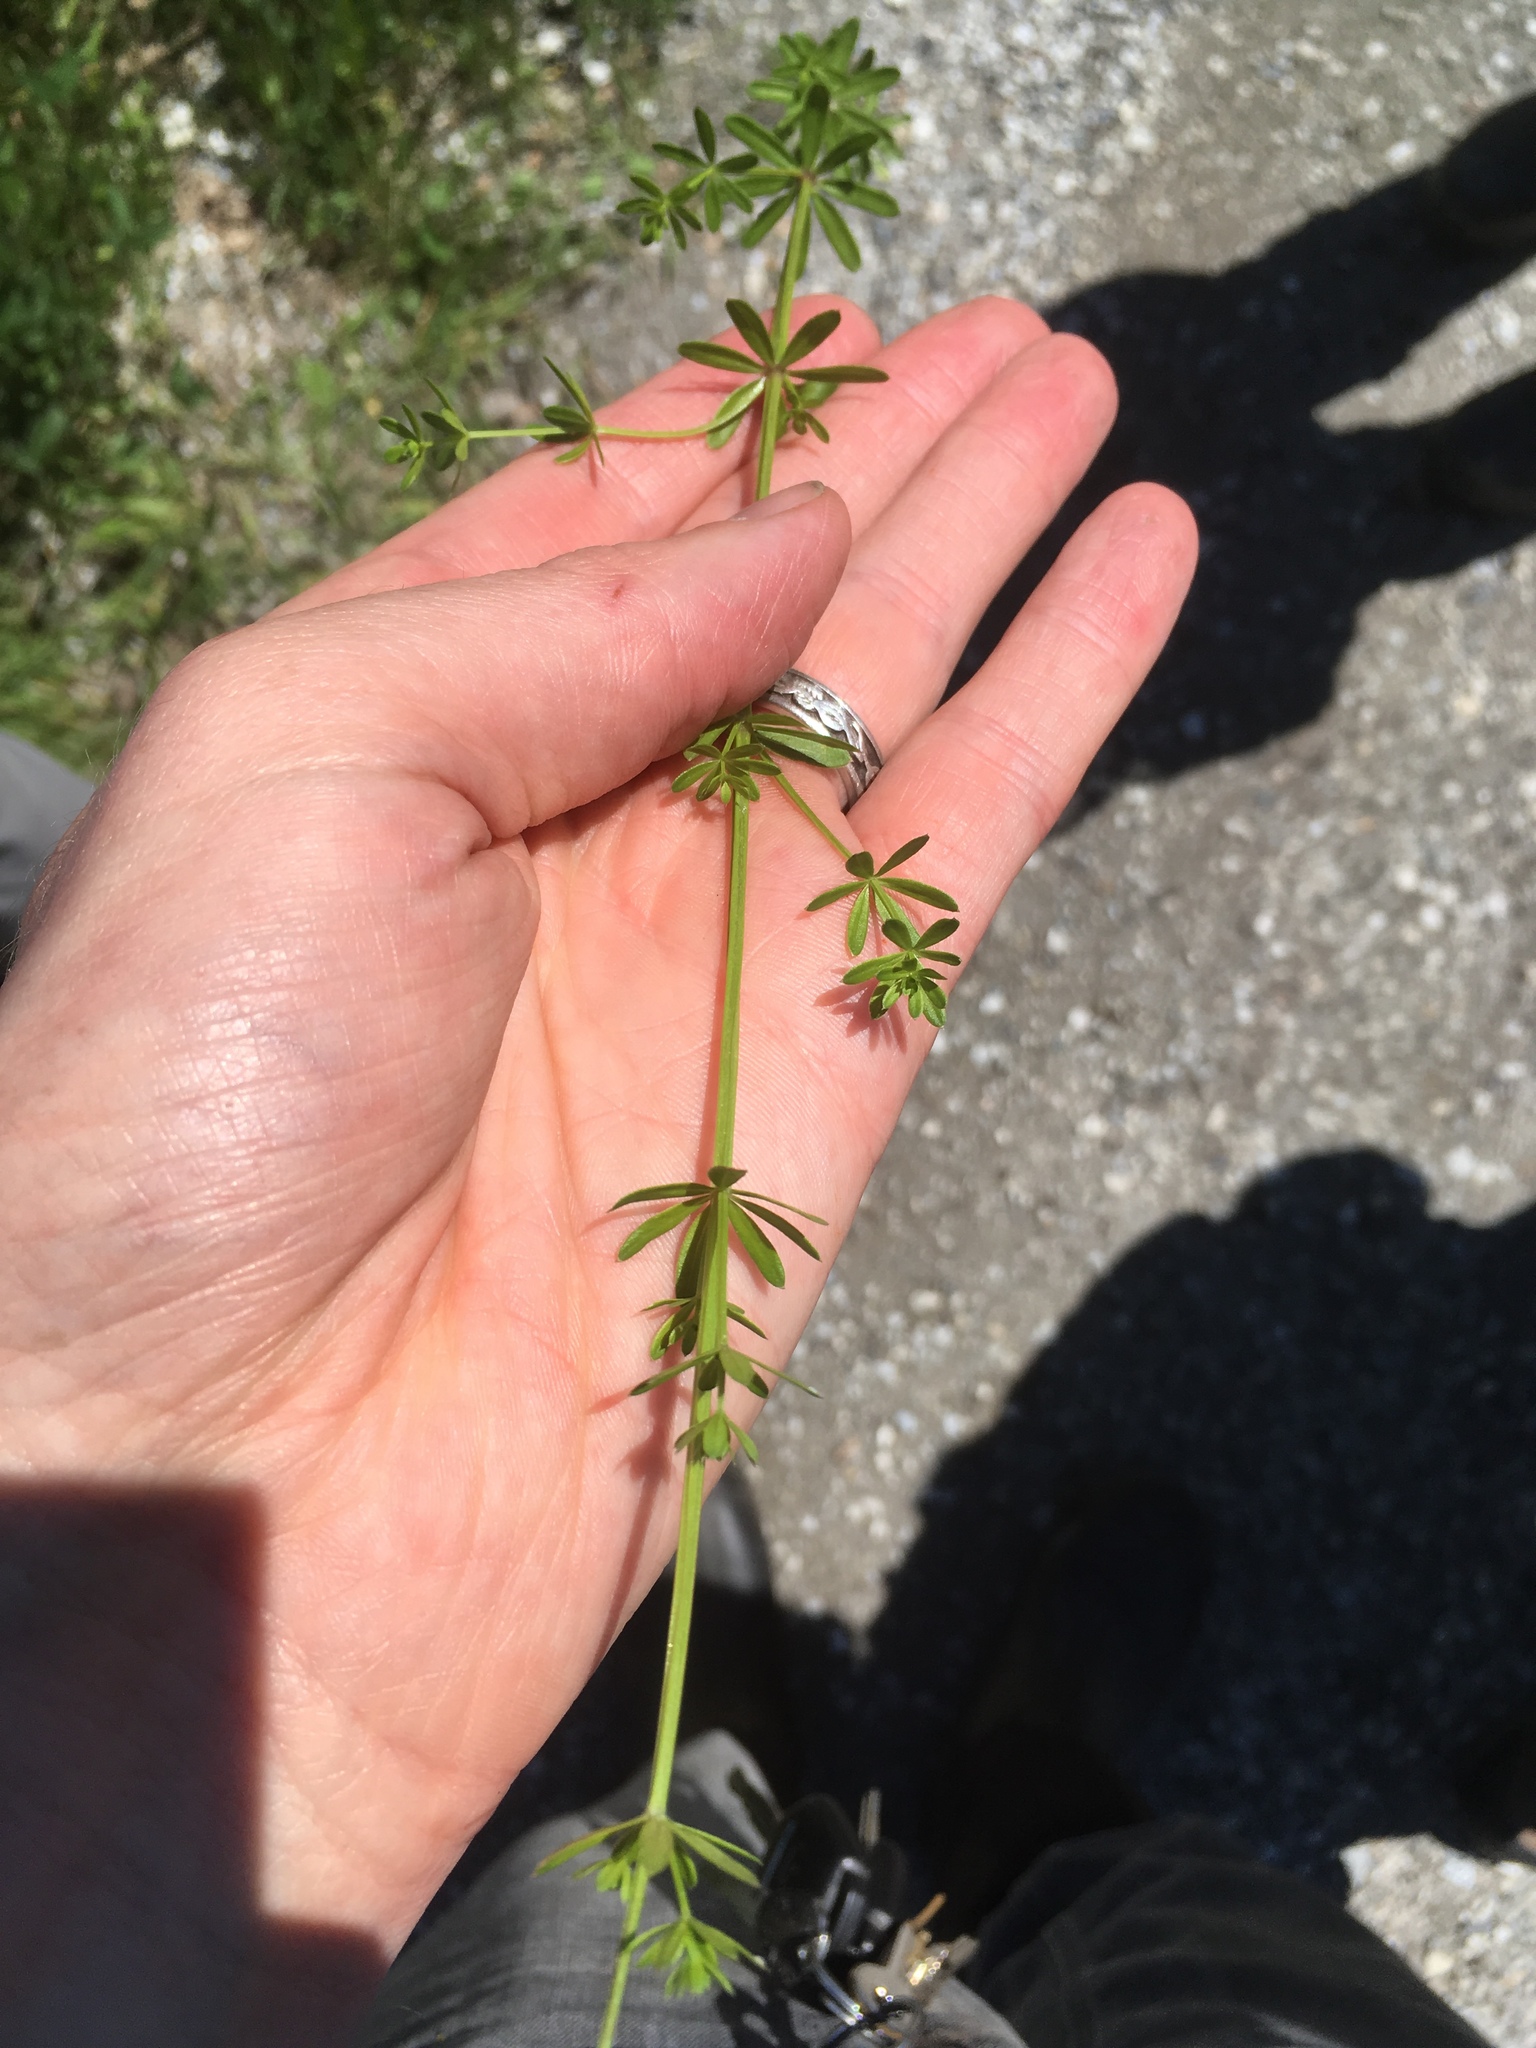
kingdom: Plantae
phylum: Tracheophyta
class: Magnoliopsida
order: Gentianales
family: Rubiaceae
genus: Galium
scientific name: Galium mollugo
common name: Hedge bedstraw
